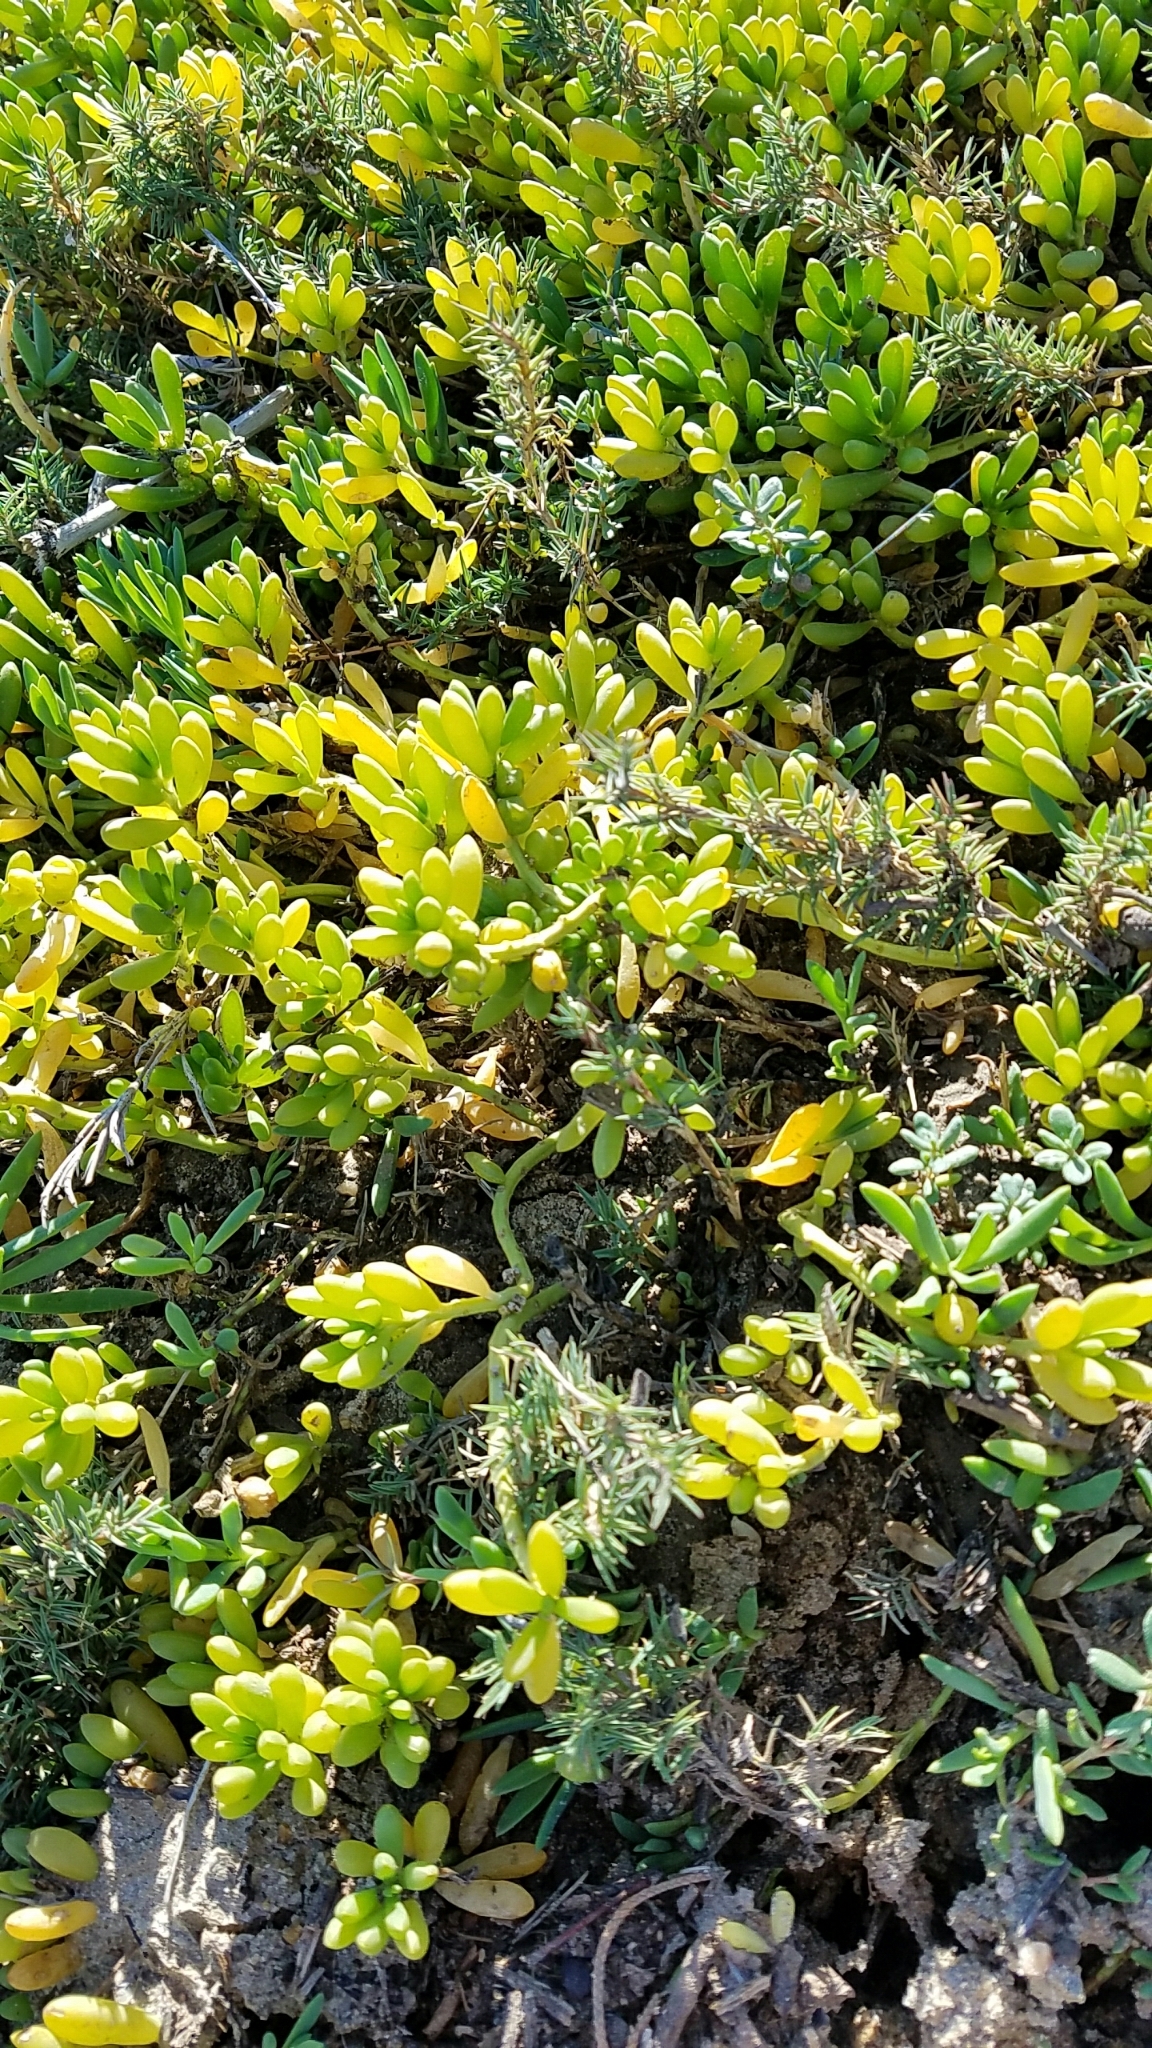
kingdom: Plantae
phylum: Tracheophyta
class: Magnoliopsida
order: Brassicales
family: Bataceae
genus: Batis
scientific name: Batis maritima
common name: Turtleweed
